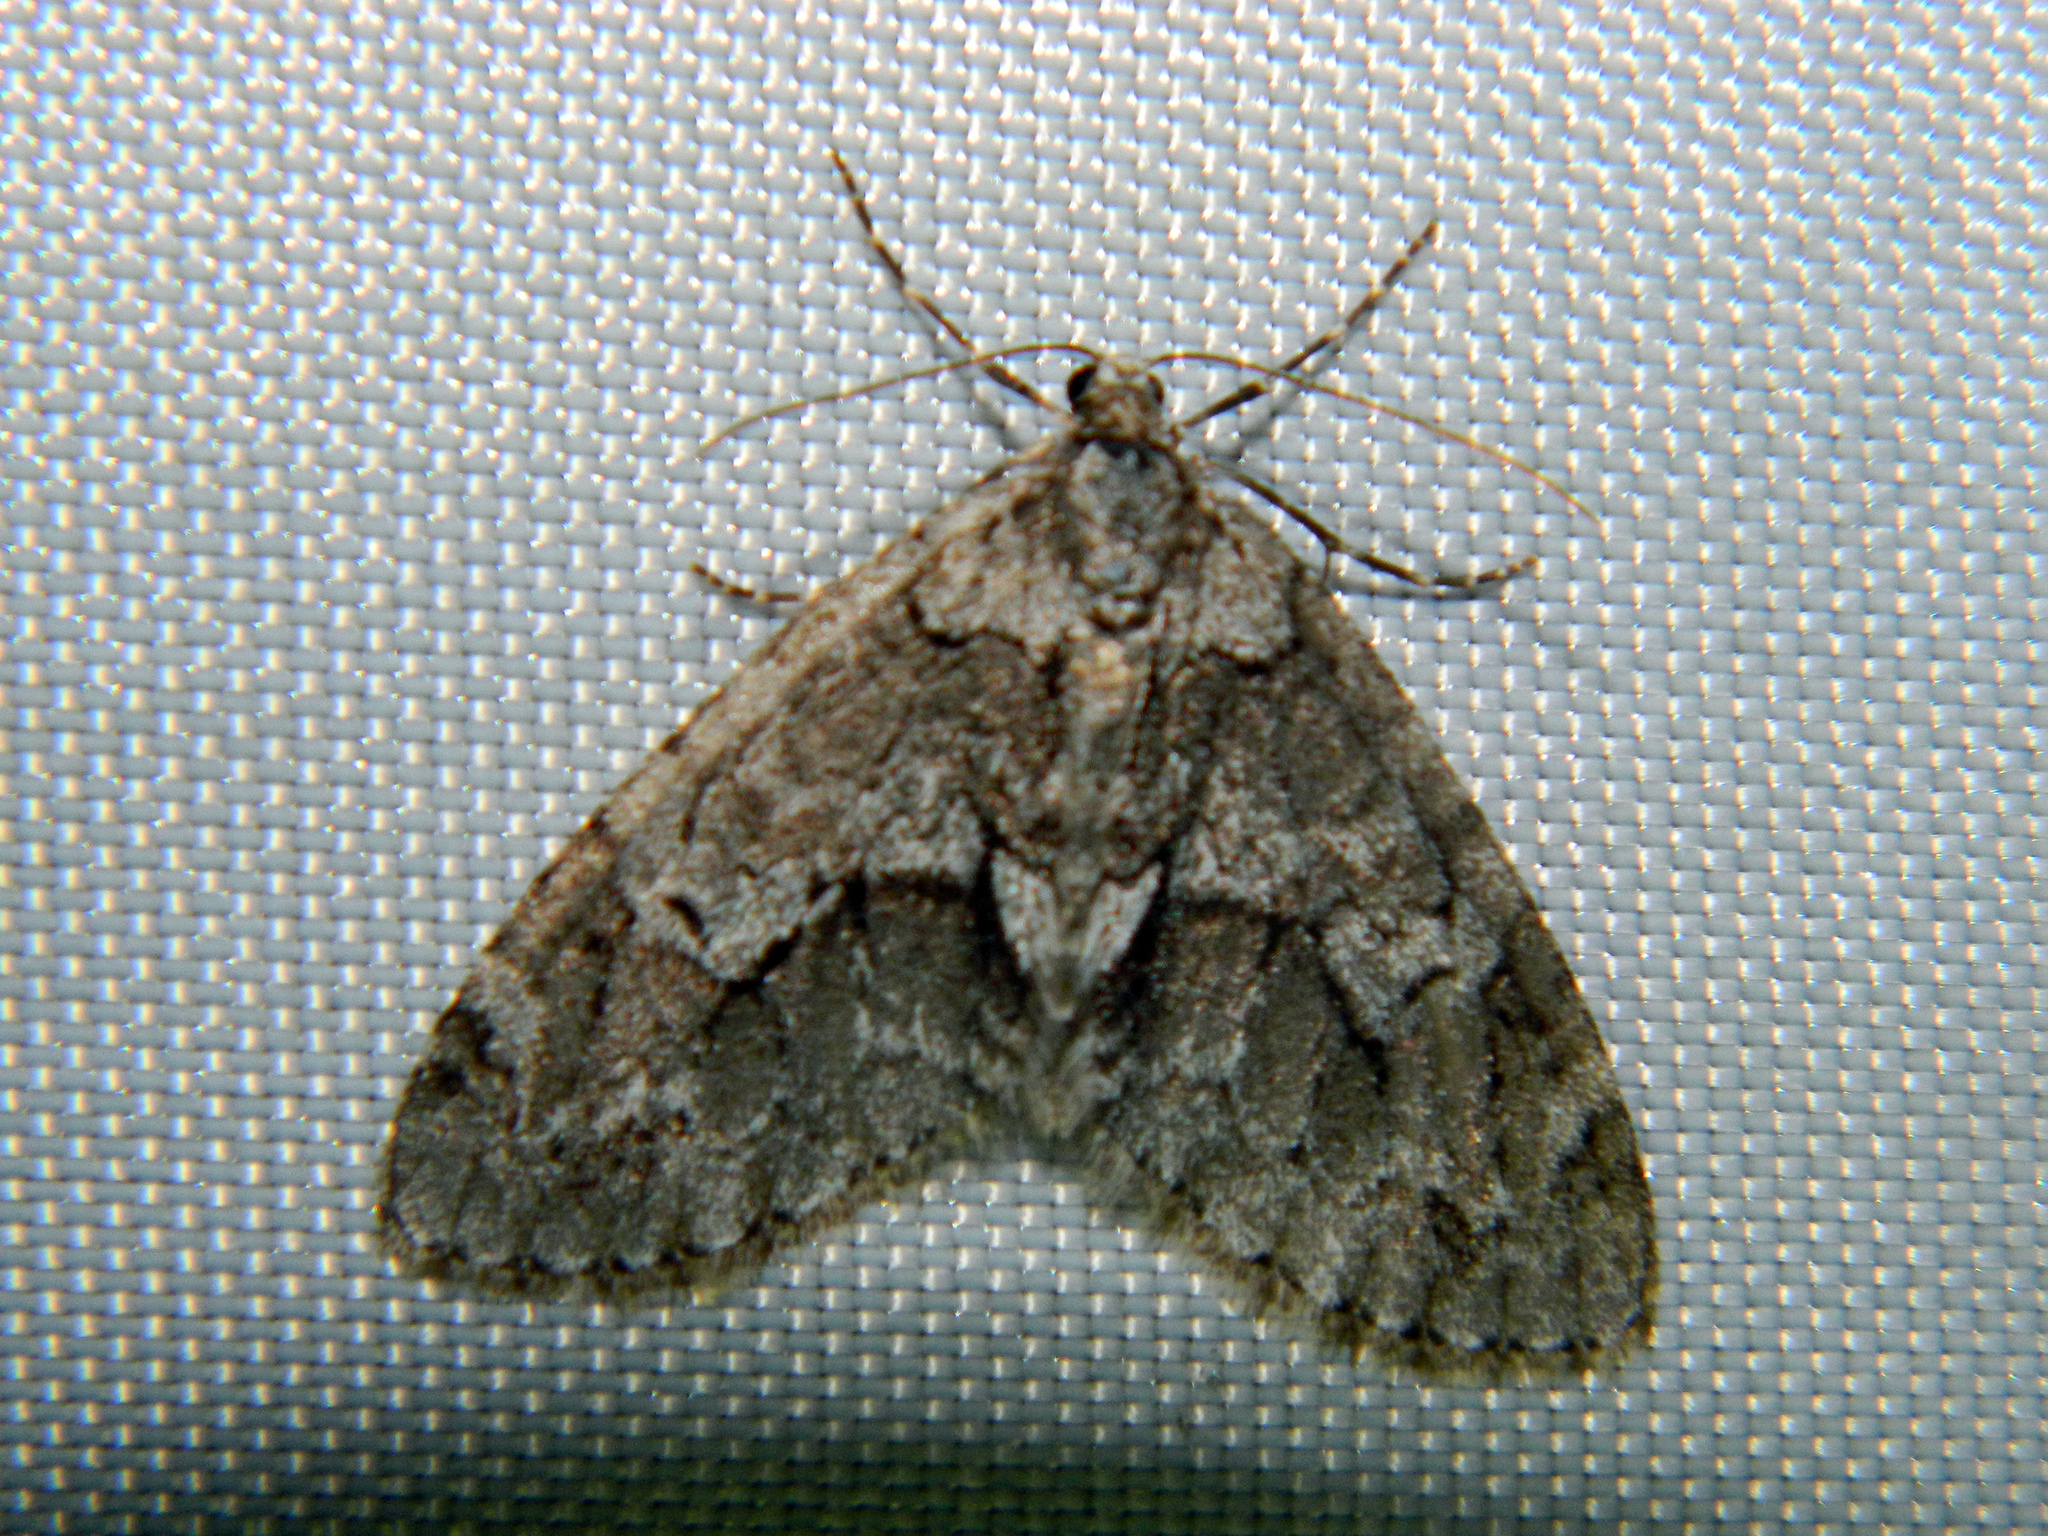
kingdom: Animalia
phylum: Arthropoda
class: Insecta
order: Lepidoptera
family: Geometridae
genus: Cladara
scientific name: Cladara limitaria
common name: Mottled gray carpet
